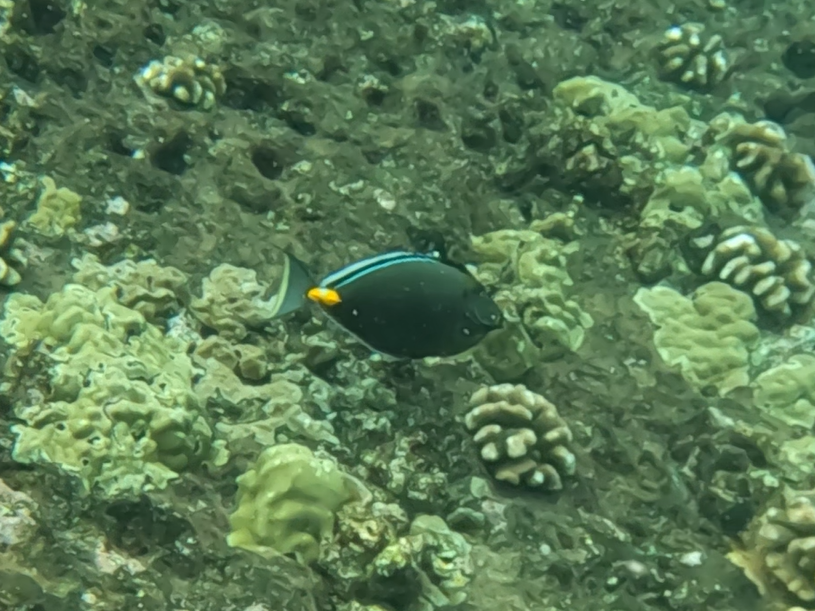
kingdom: Animalia
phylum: Chordata
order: Perciformes
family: Acanthuridae
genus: Naso
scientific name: Naso lituratus
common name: Orangespine unicornfish
